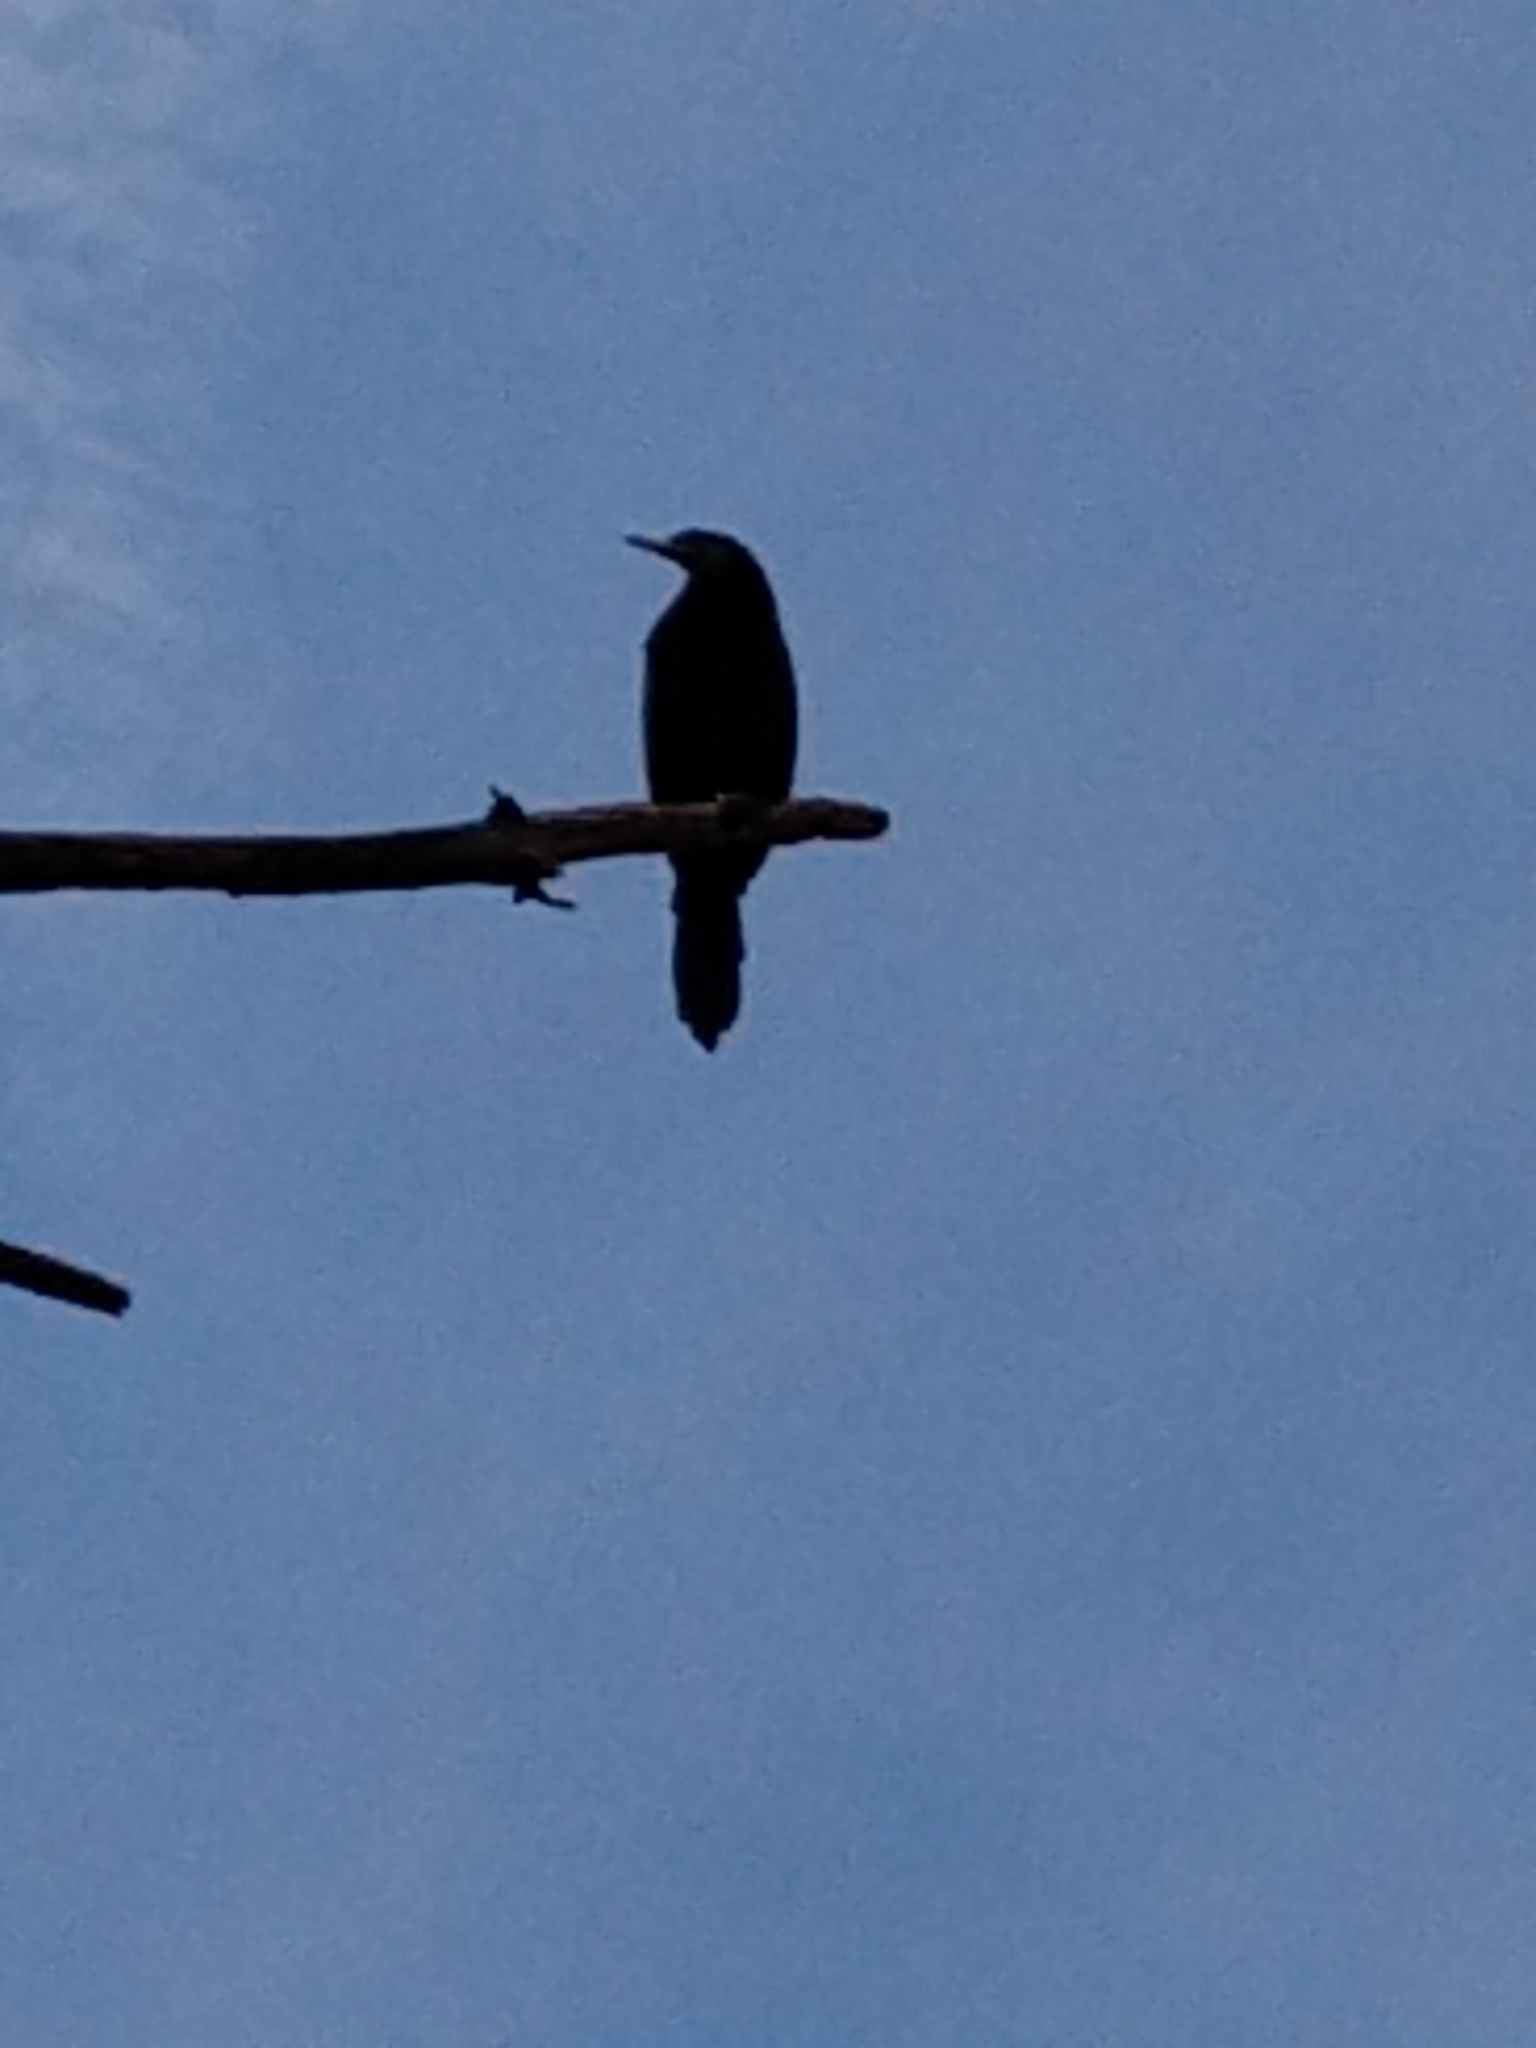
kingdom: Animalia
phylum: Chordata
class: Aves
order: Suliformes
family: Phalacrocoracidae
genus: Phalacrocorax
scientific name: Phalacrocorax brasilianus
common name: Neotropic cormorant
